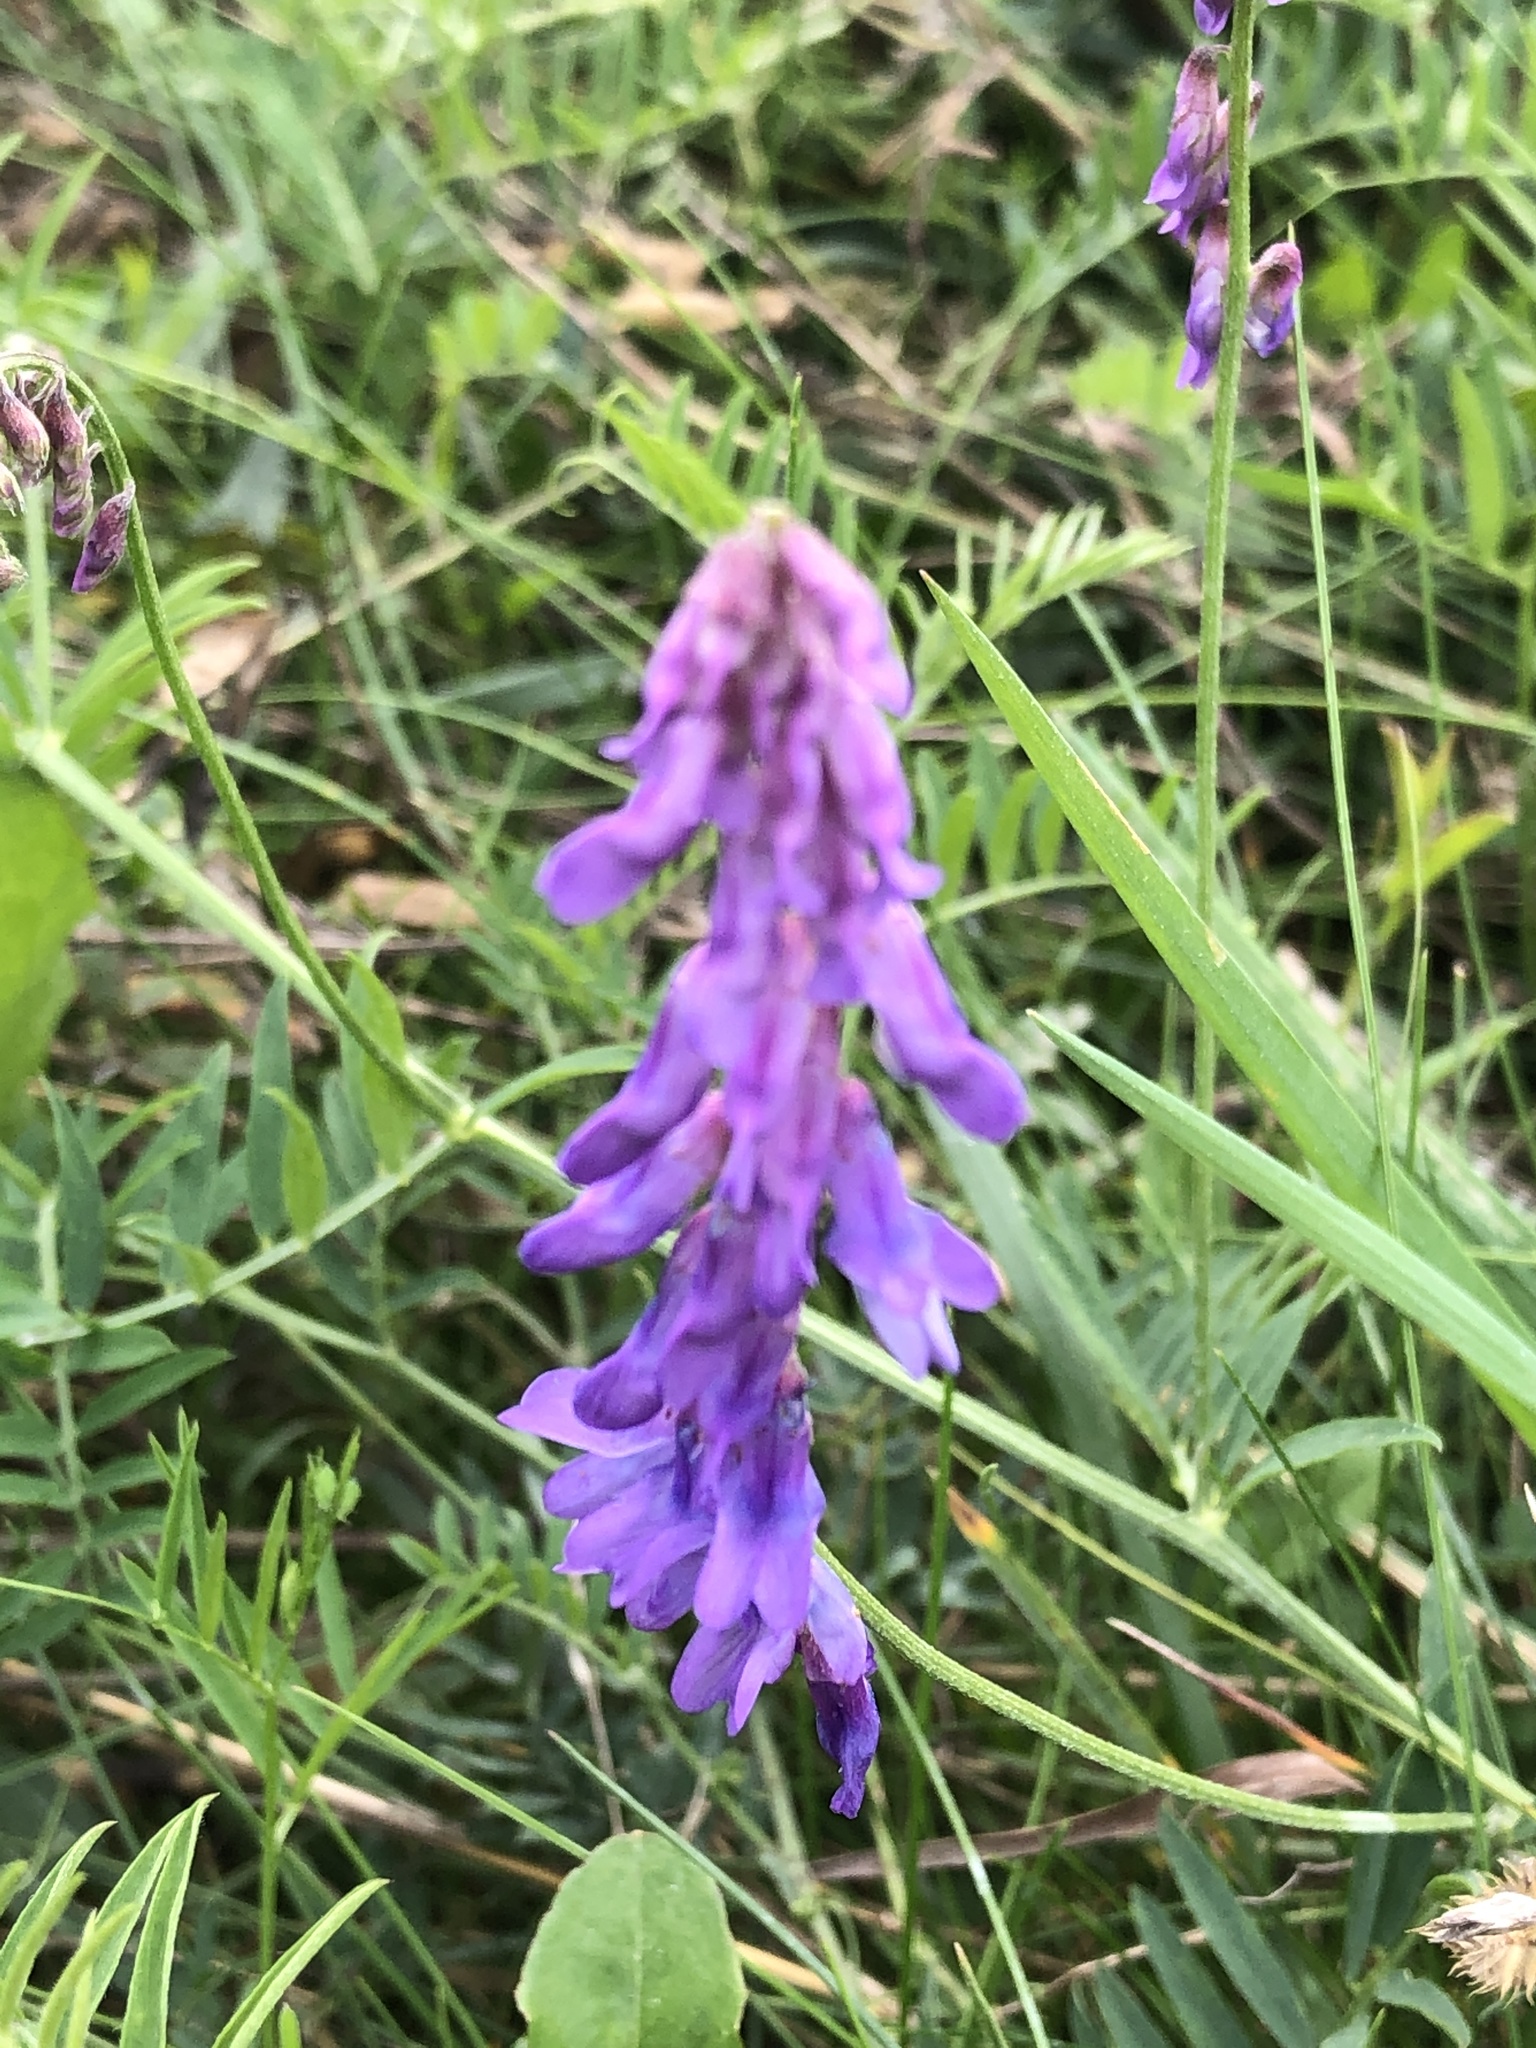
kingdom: Plantae
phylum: Tracheophyta
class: Magnoliopsida
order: Fabales
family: Fabaceae
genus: Vicia
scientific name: Vicia cracca
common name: Bird vetch
